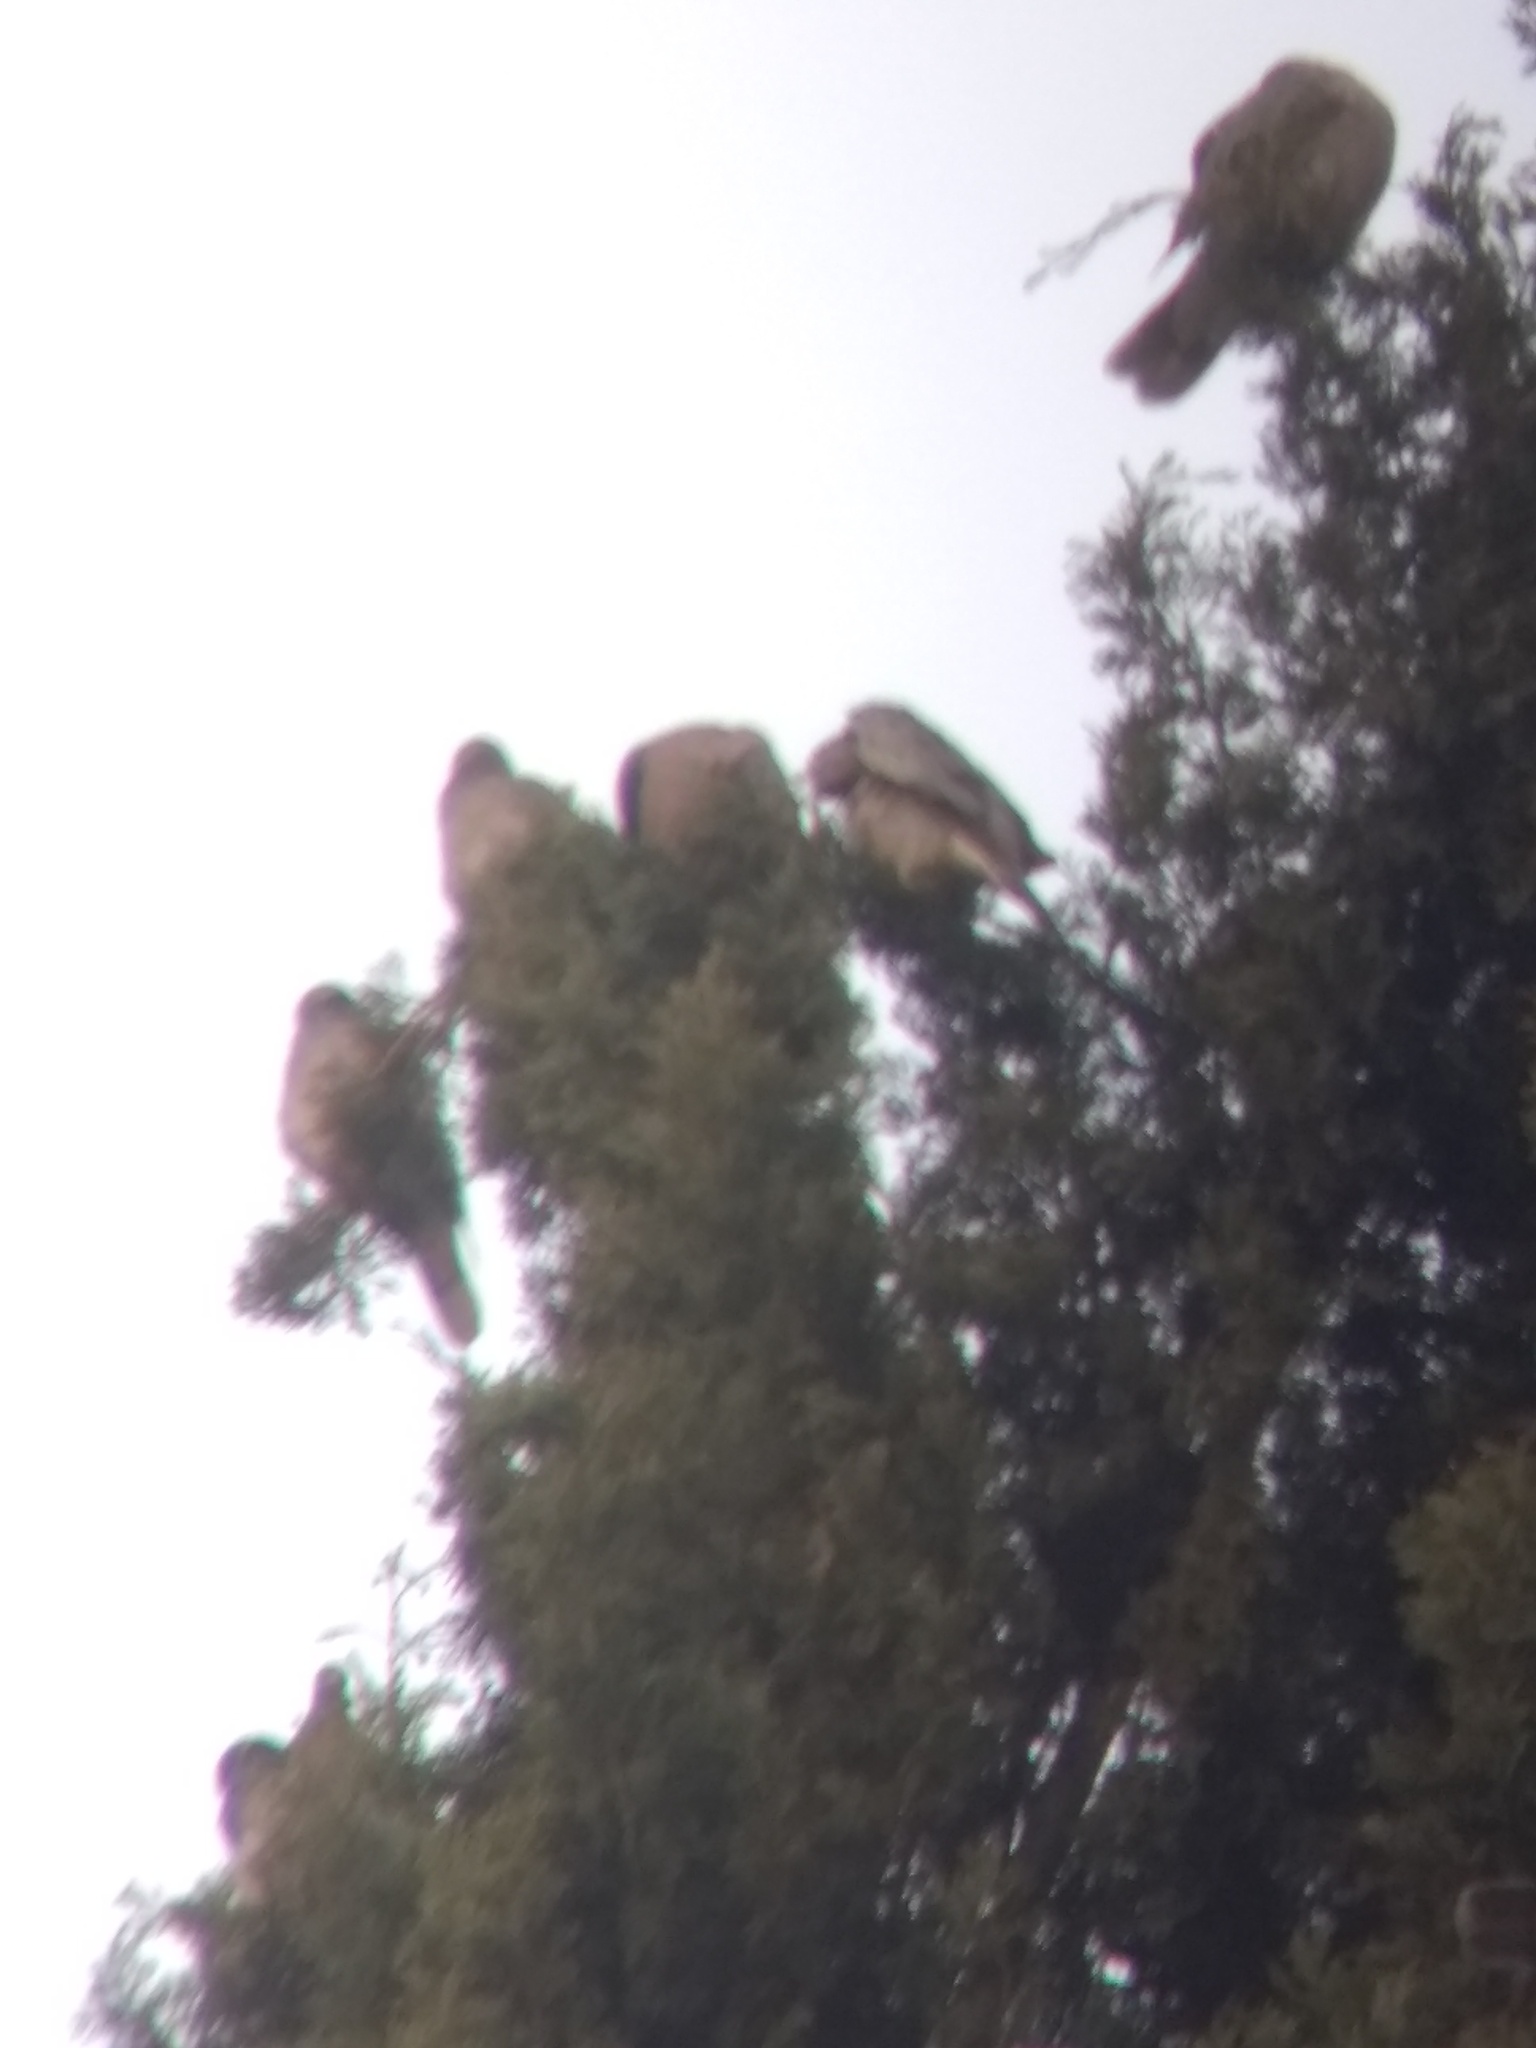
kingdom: Animalia
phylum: Chordata
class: Aves
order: Columbiformes
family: Columbidae
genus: Patagioenas
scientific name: Patagioenas fasciata
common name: Band-tailed pigeon
